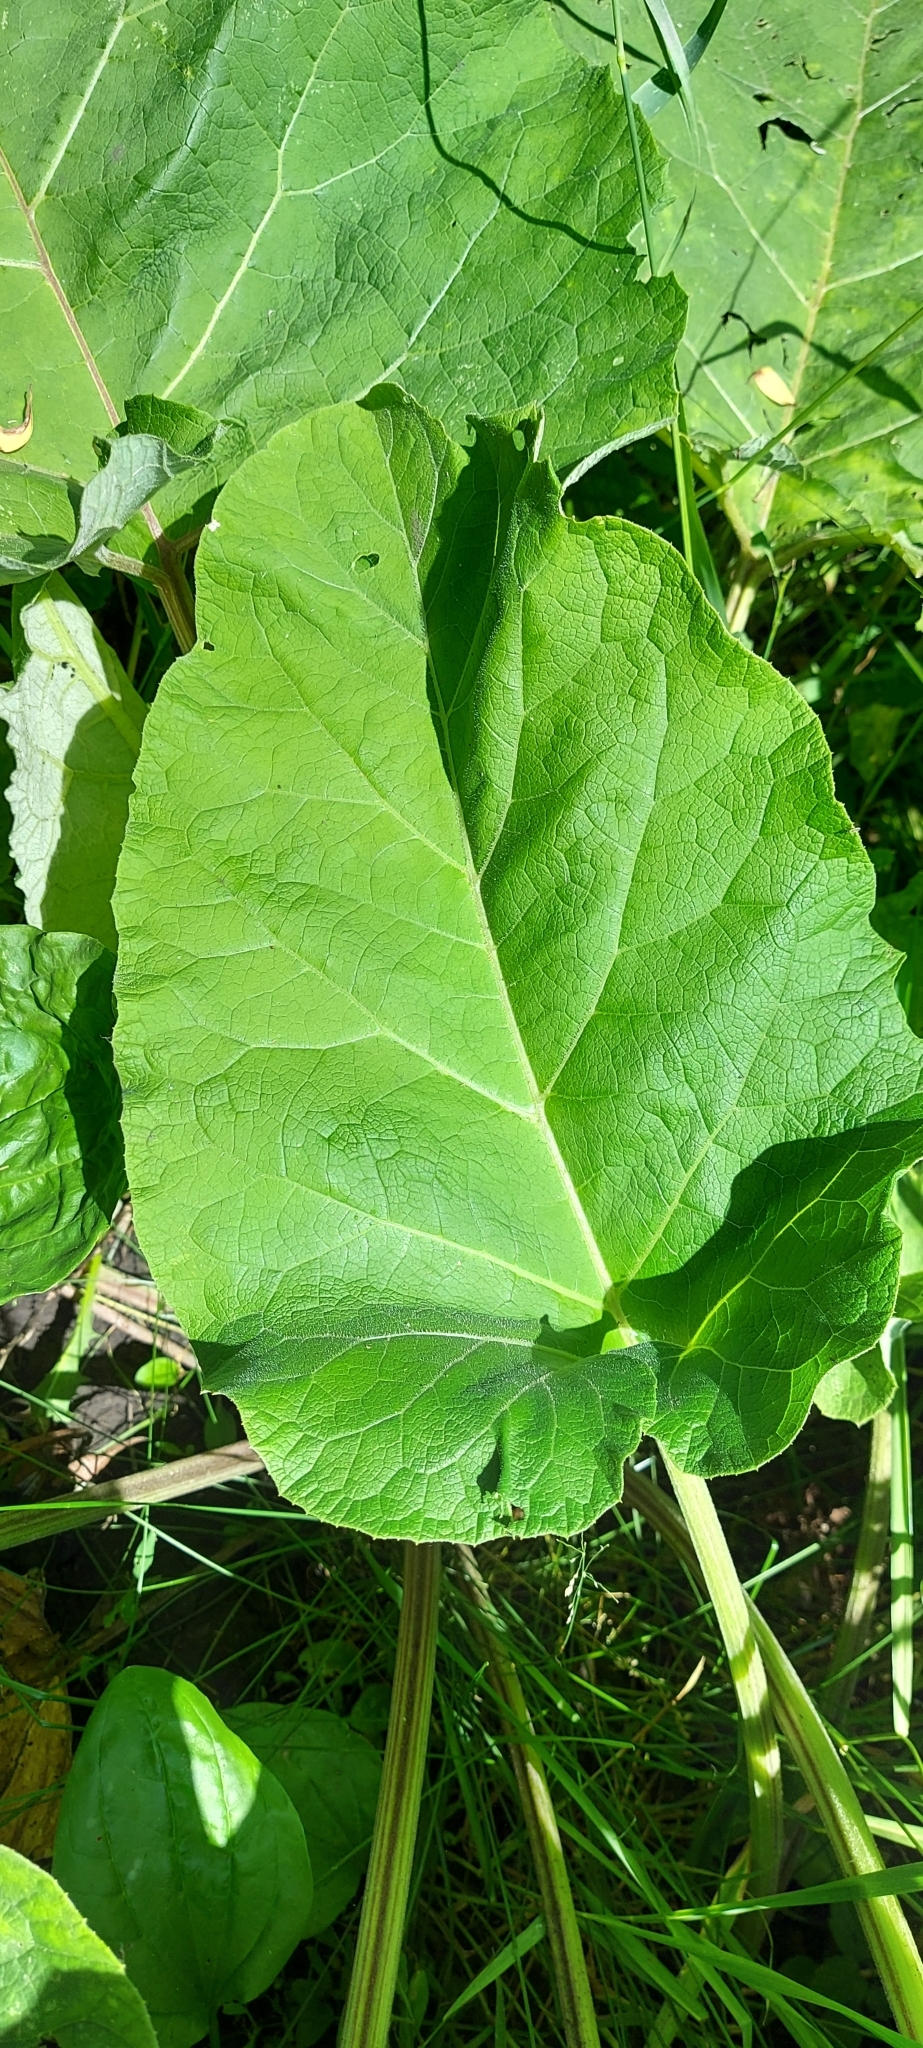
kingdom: Plantae
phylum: Tracheophyta
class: Magnoliopsida
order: Asterales
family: Asteraceae
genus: Arctium
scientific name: Arctium tomentosum
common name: Woolly burdock
